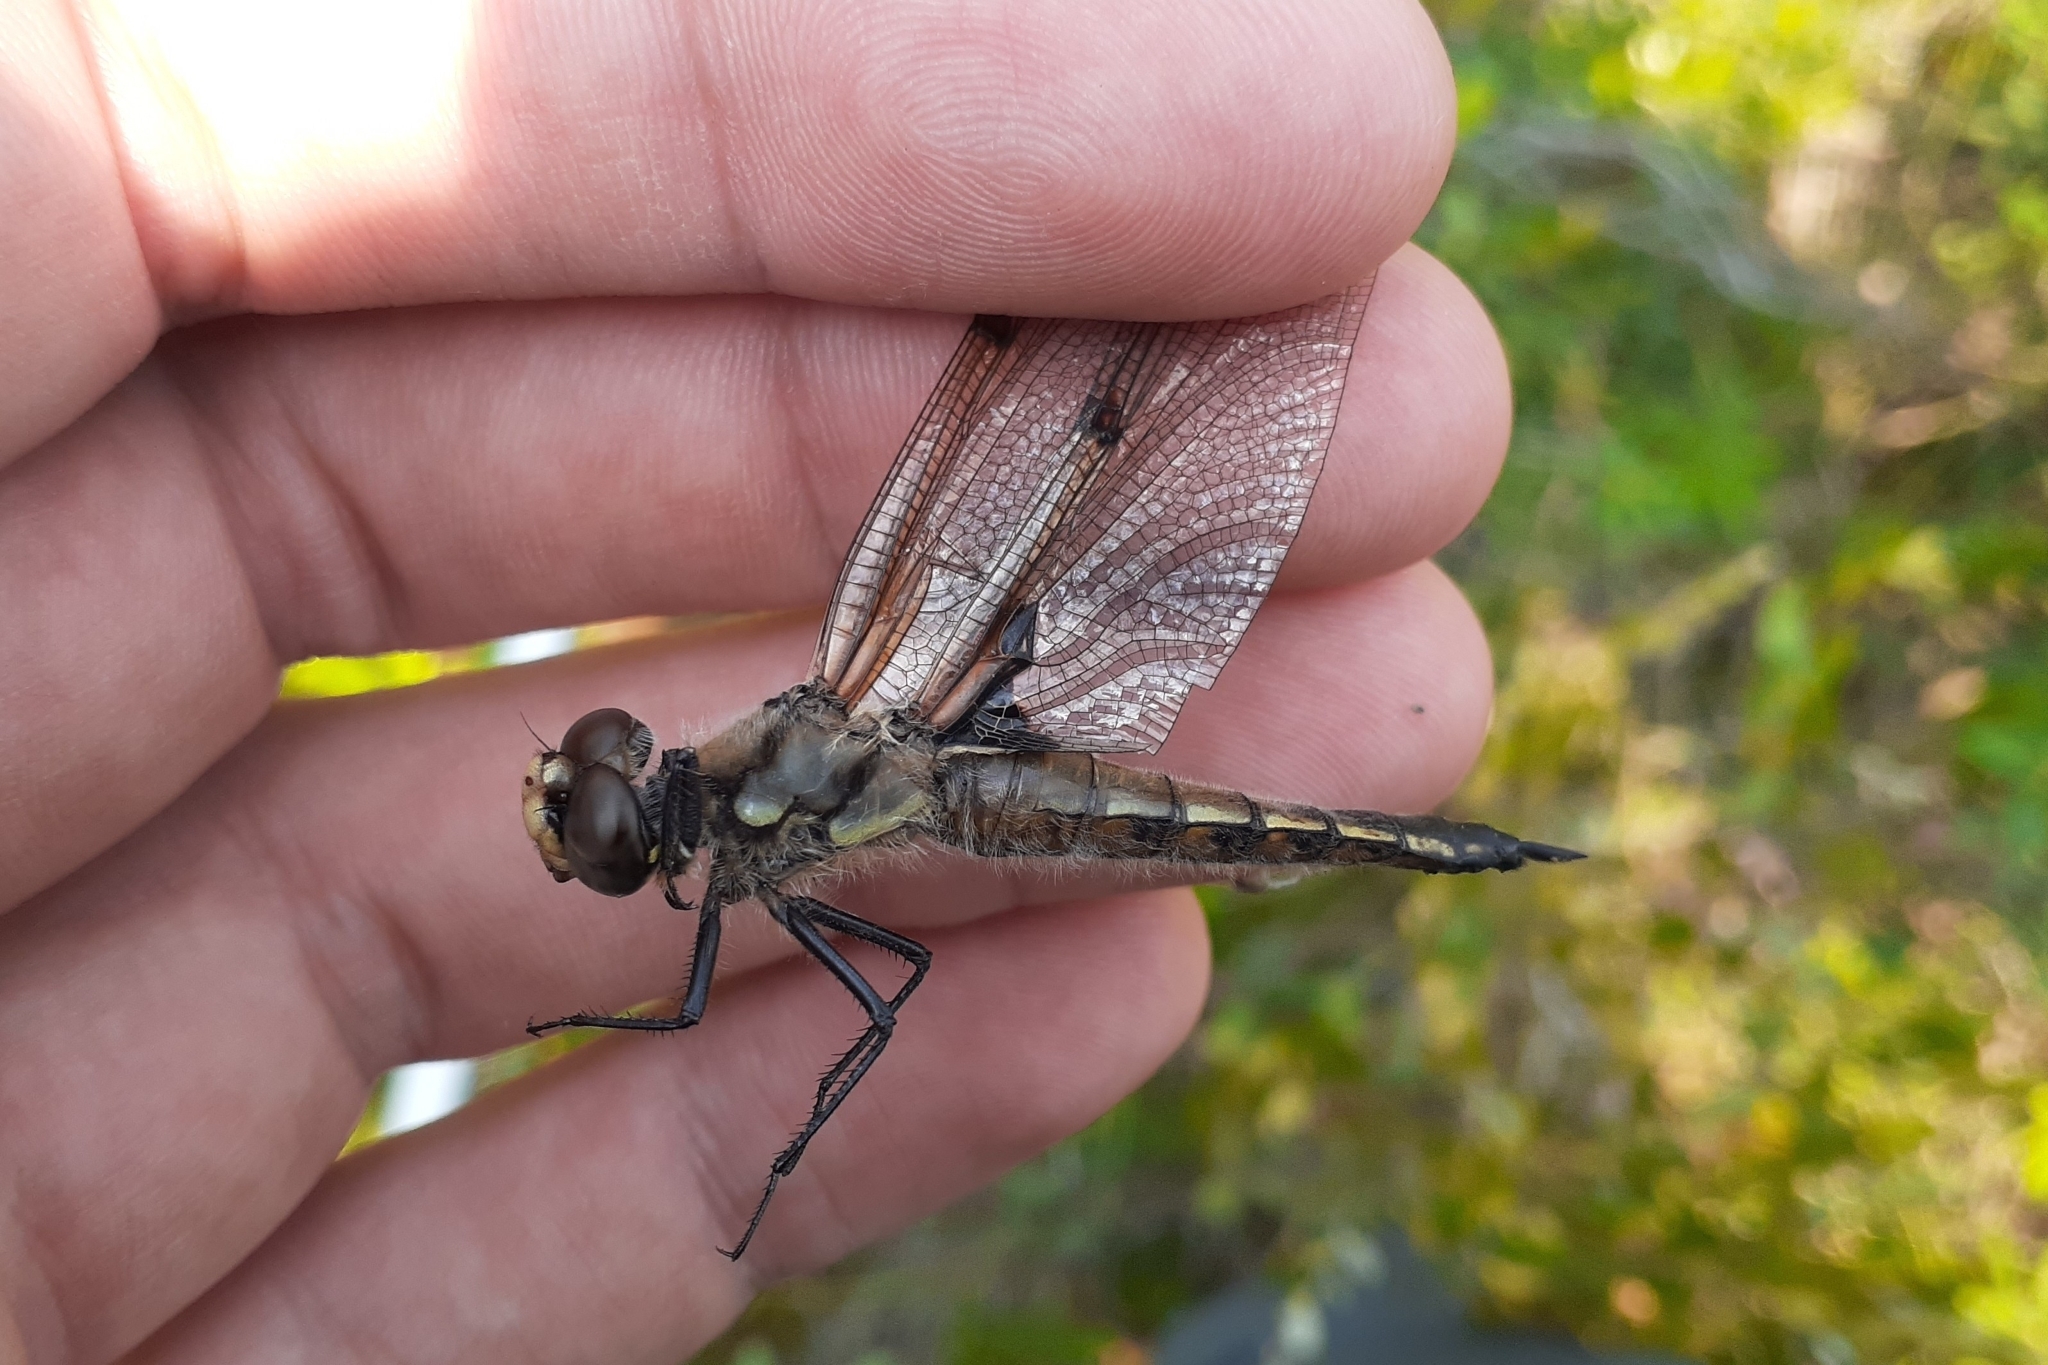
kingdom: Animalia
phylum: Arthropoda
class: Insecta
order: Odonata
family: Libellulidae
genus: Libellula
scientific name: Libellula quadrimaculata
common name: Four-spotted chaser
